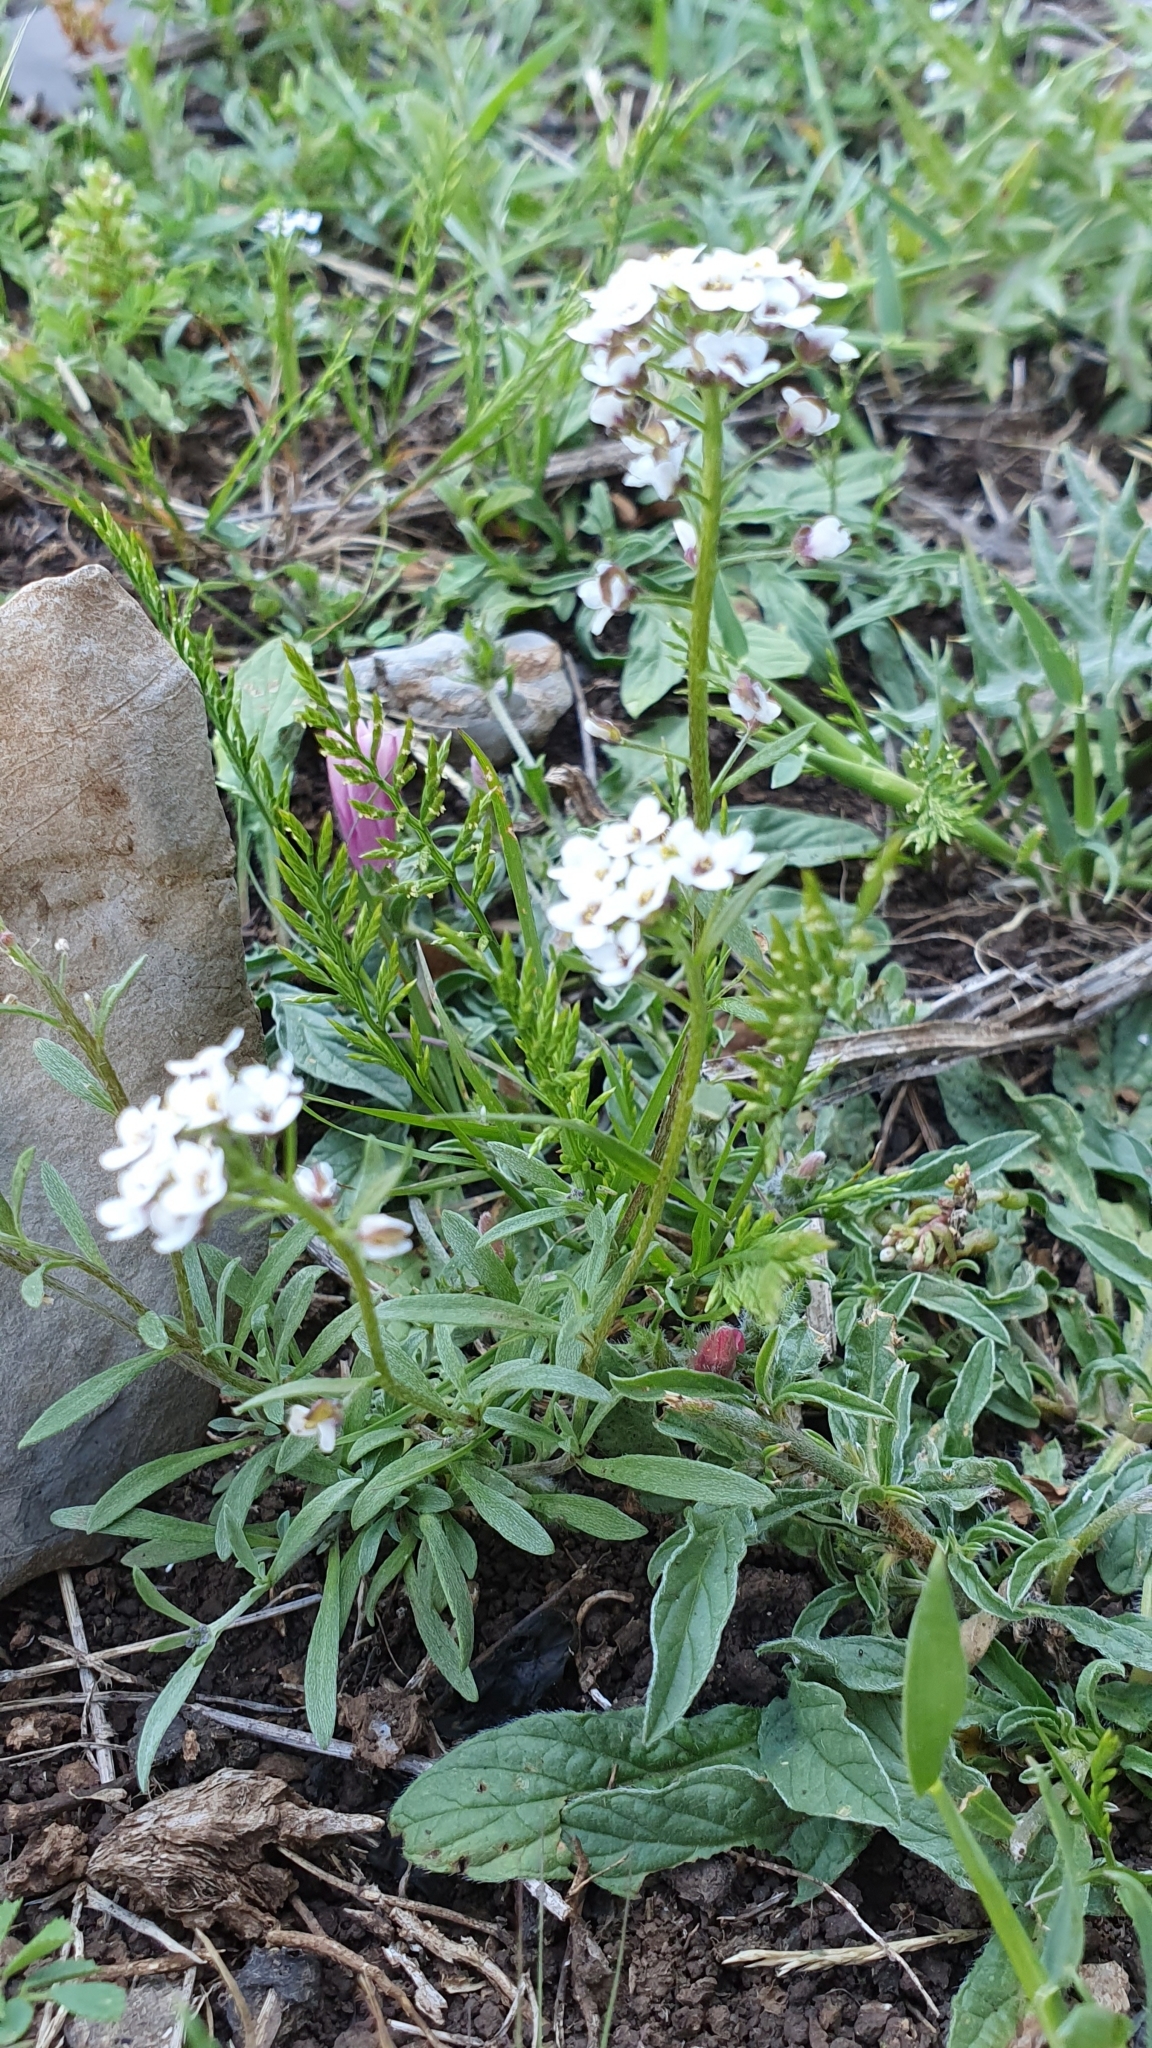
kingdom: Plantae
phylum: Tracheophyta
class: Magnoliopsida
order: Brassicales
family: Brassicaceae
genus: Lobularia
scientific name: Lobularia maritima
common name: Sweet alison
